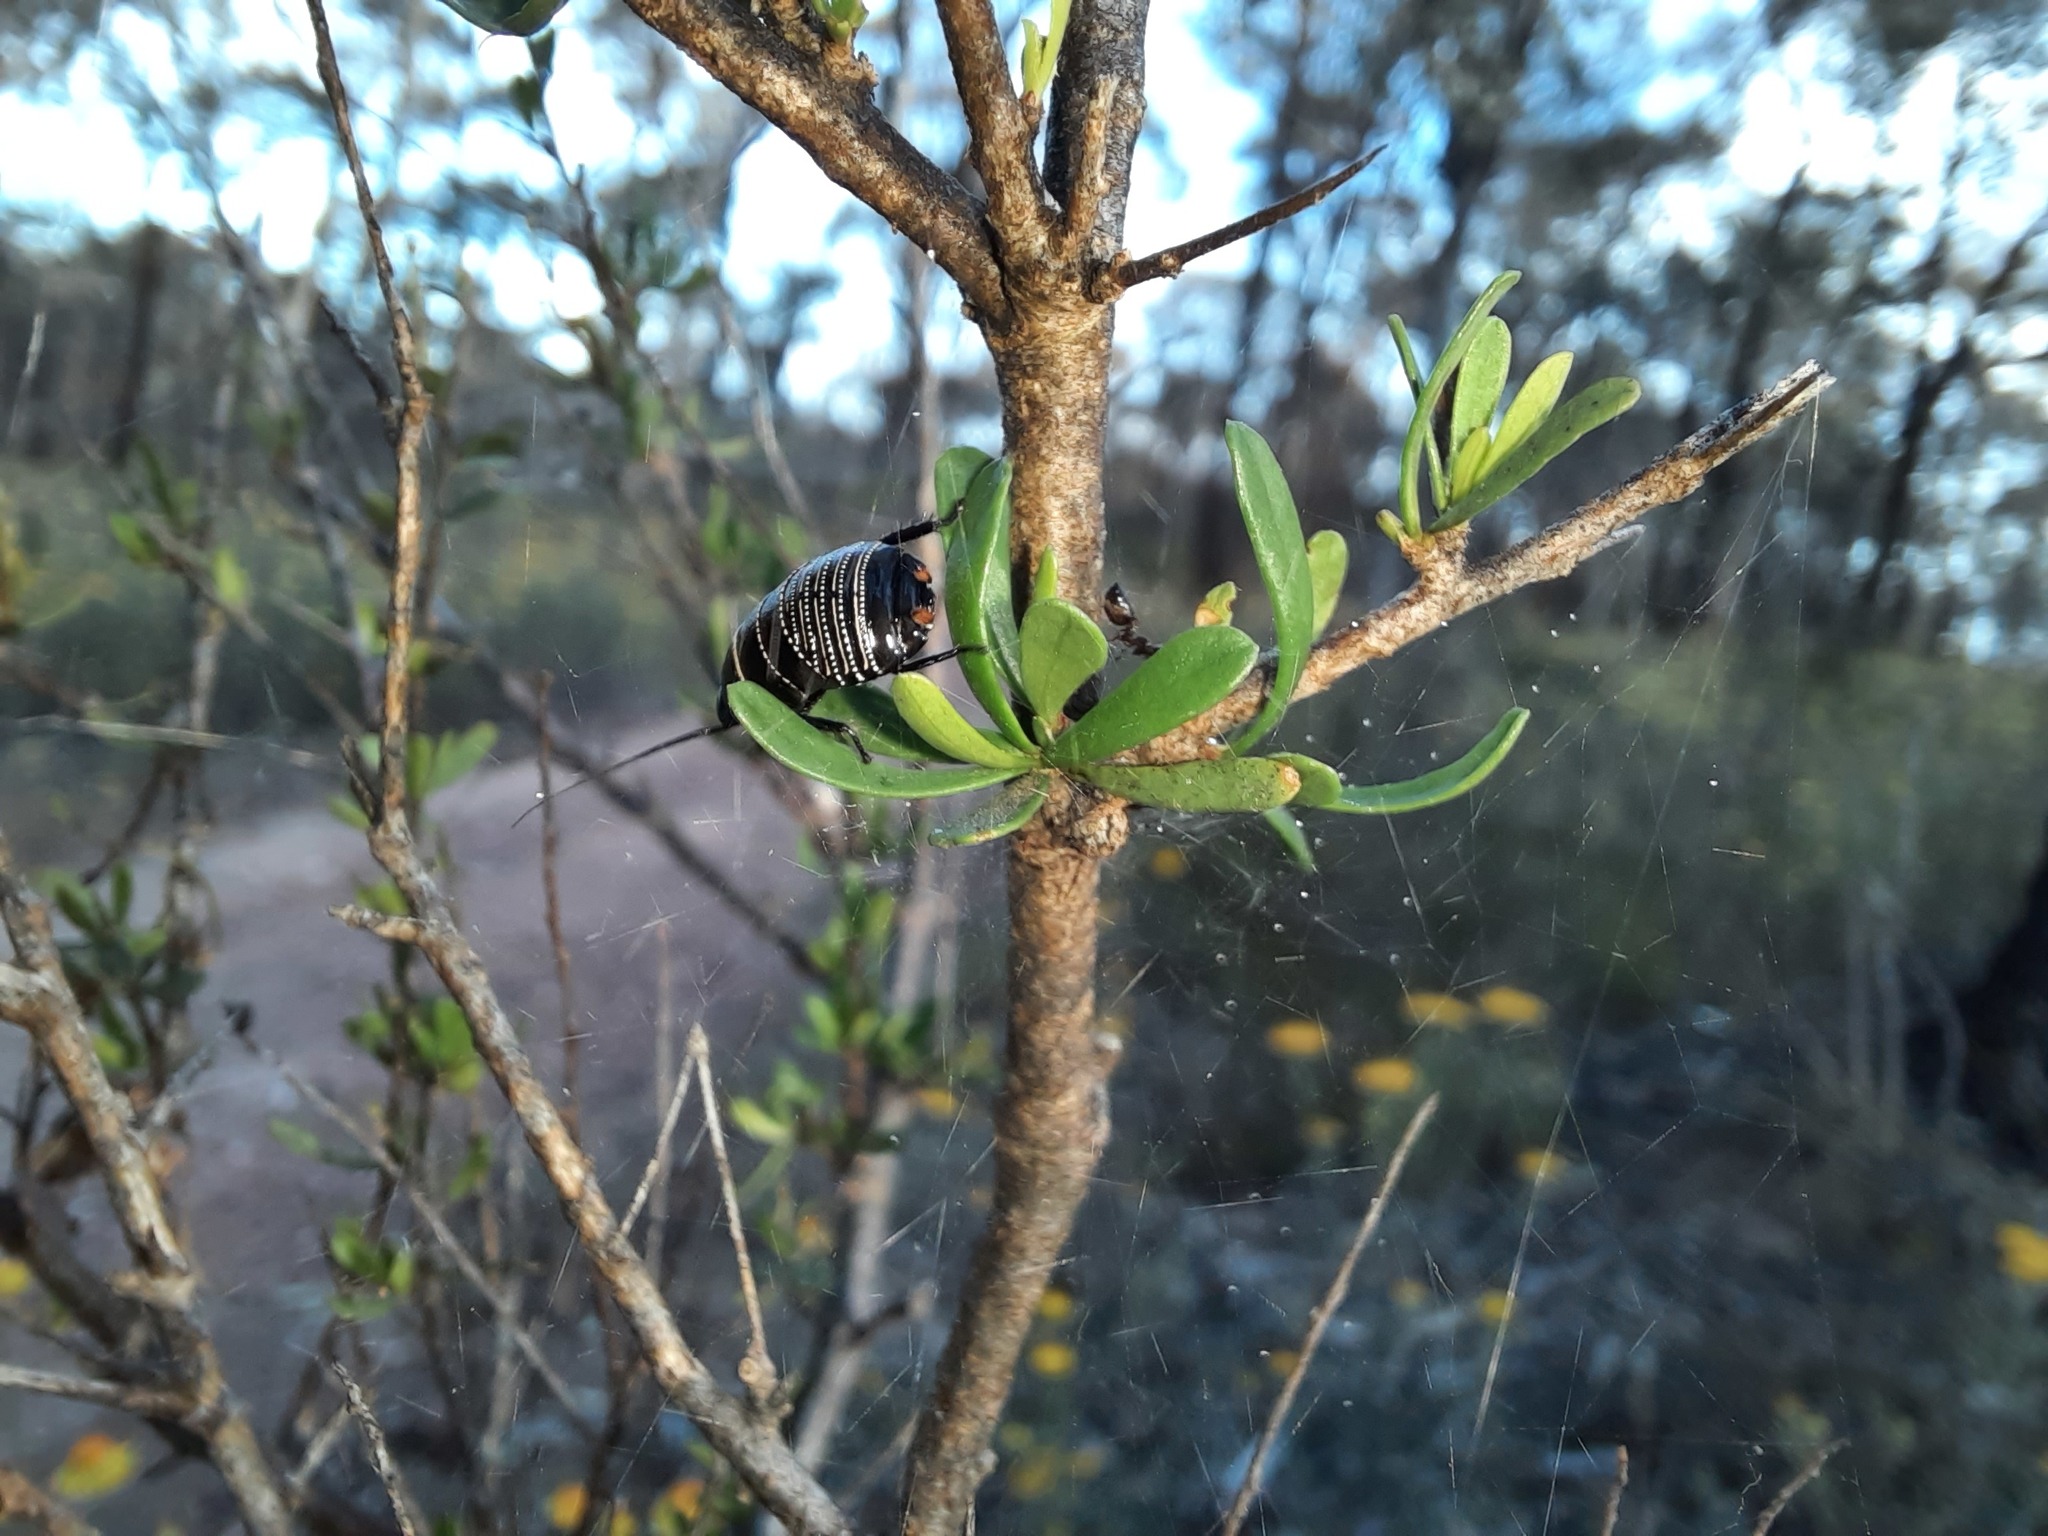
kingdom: Plantae
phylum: Tracheophyta
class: Magnoliopsida
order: Apiales
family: Pittosporaceae
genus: Bursaria
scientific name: Bursaria spinosa
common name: Australian blackthorn
